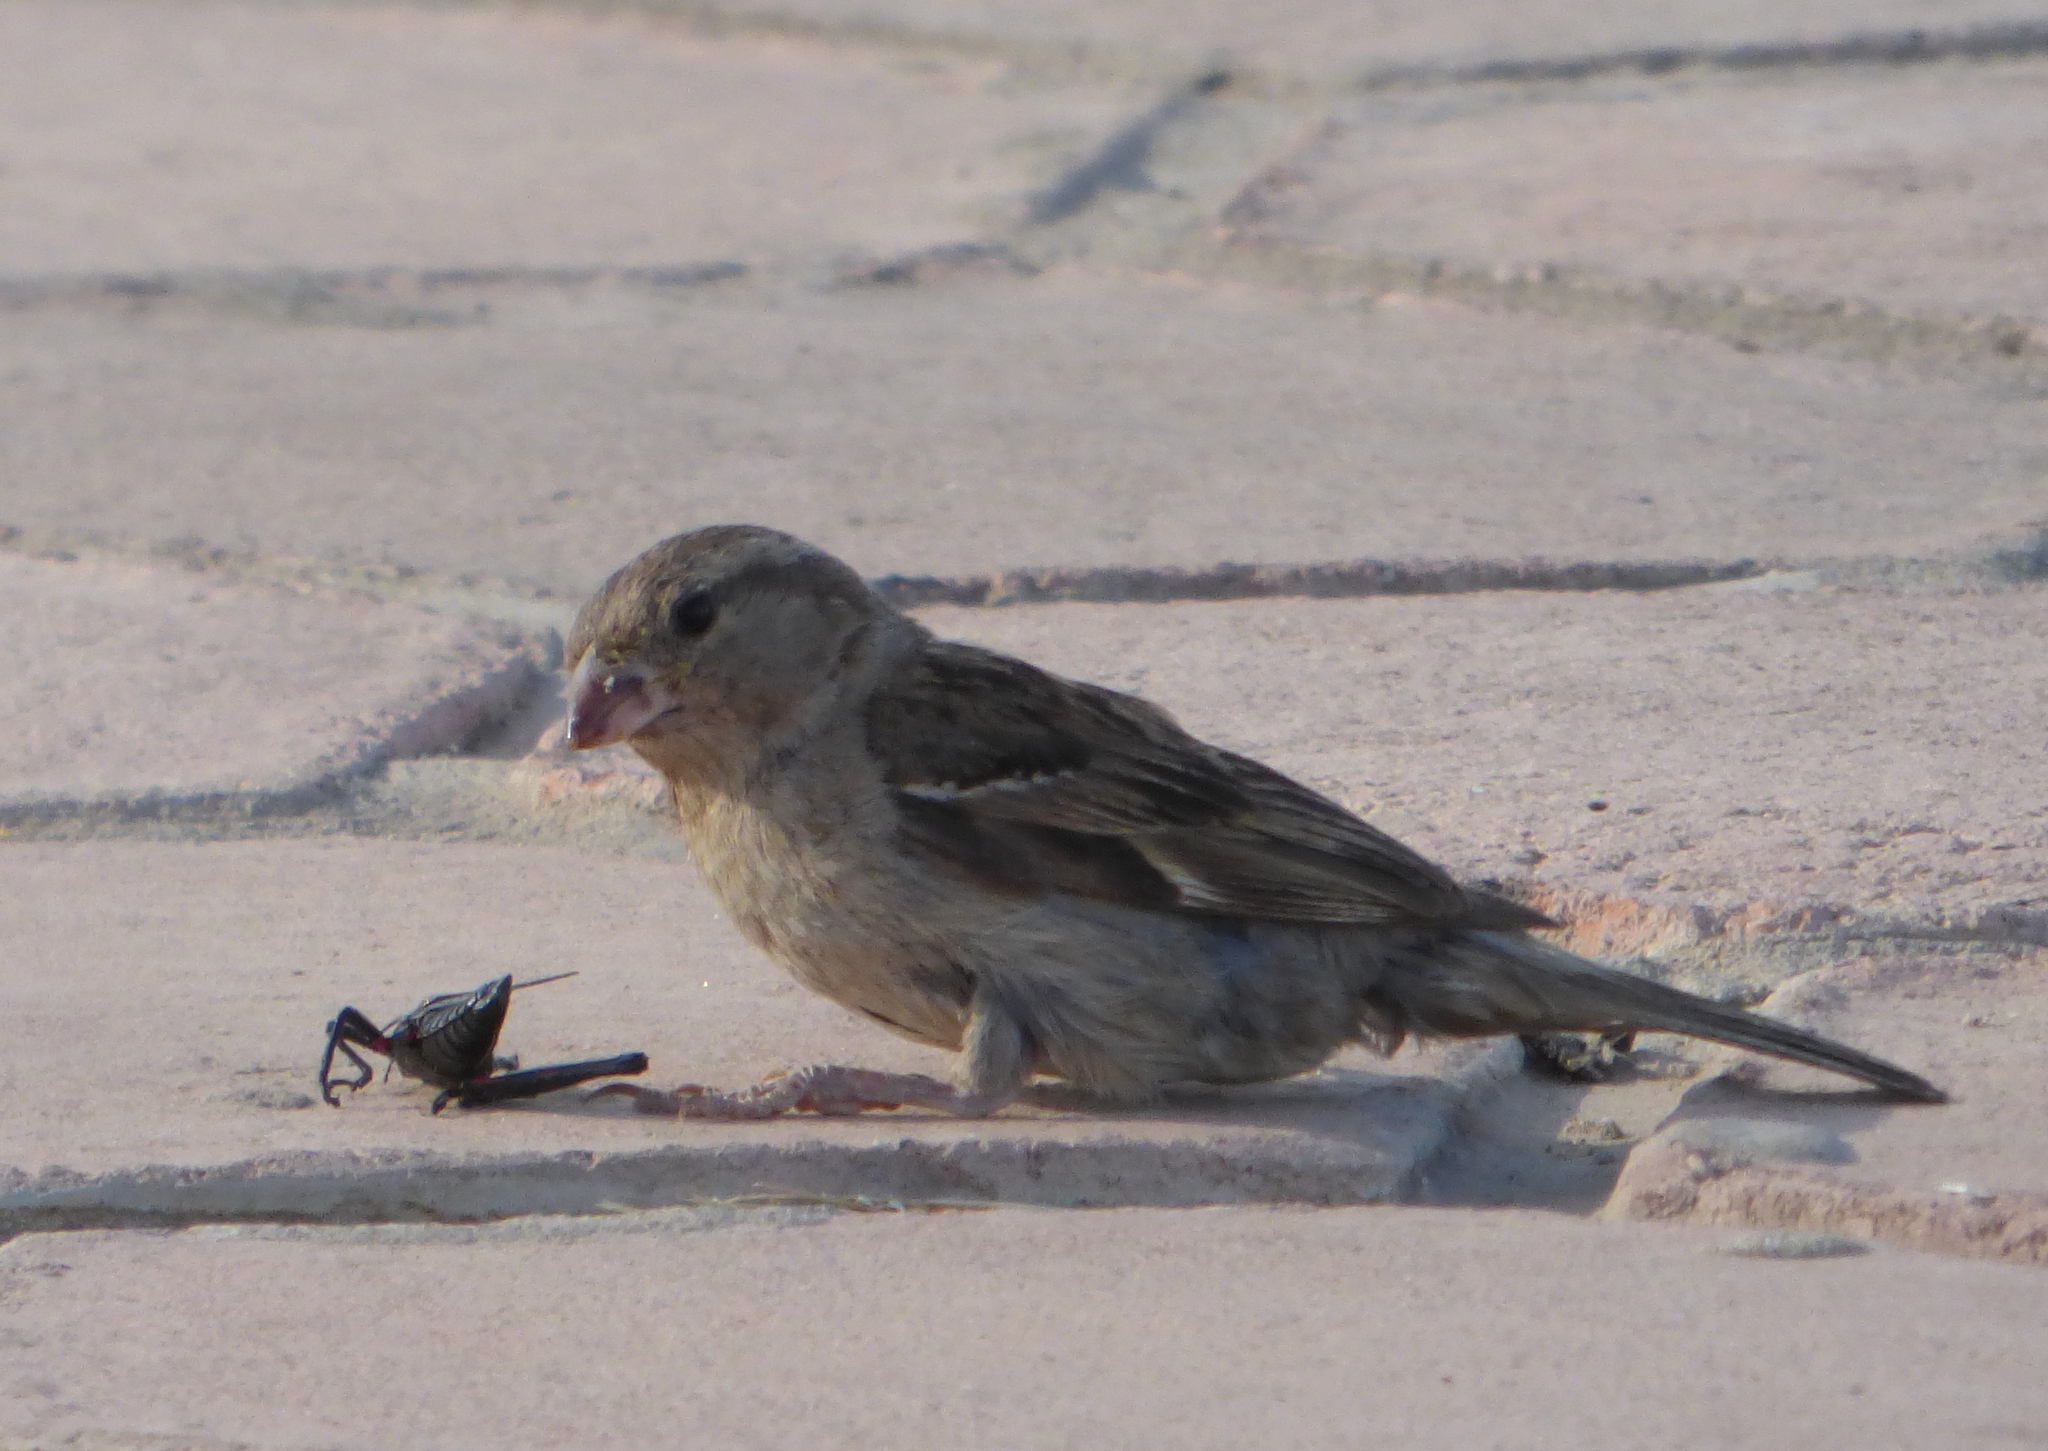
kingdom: Animalia
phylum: Chordata
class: Aves
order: Passeriformes
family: Passeridae
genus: Passer
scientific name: Passer domesticus
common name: House sparrow
